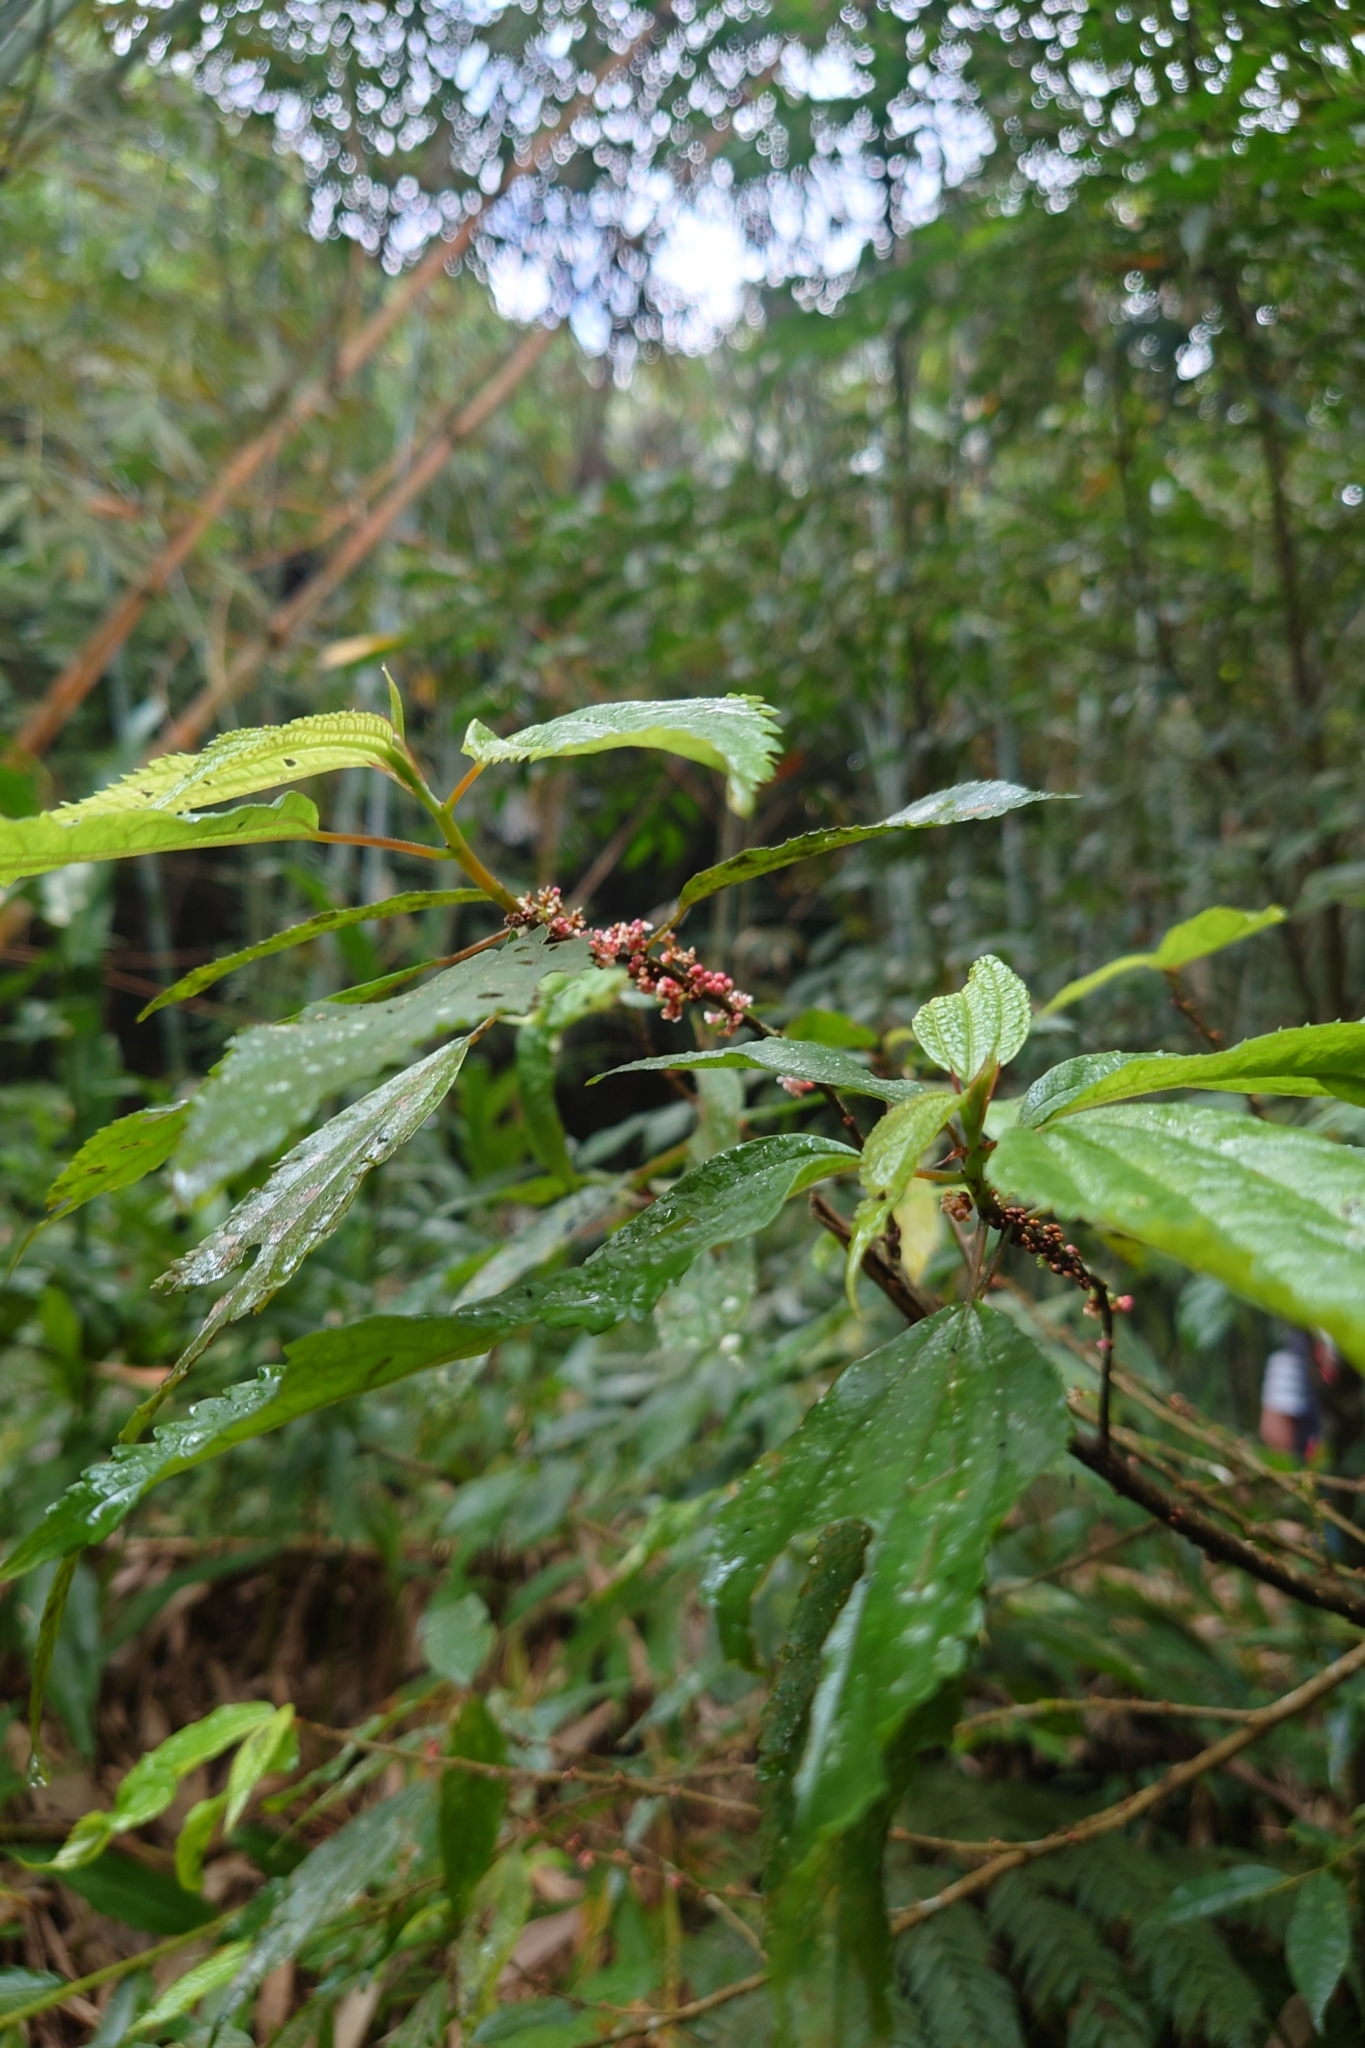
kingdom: Plantae
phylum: Tracheophyta
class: Magnoliopsida
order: Rosales
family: Urticaceae
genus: Oreocnide
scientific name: Oreocnide pedunculata
